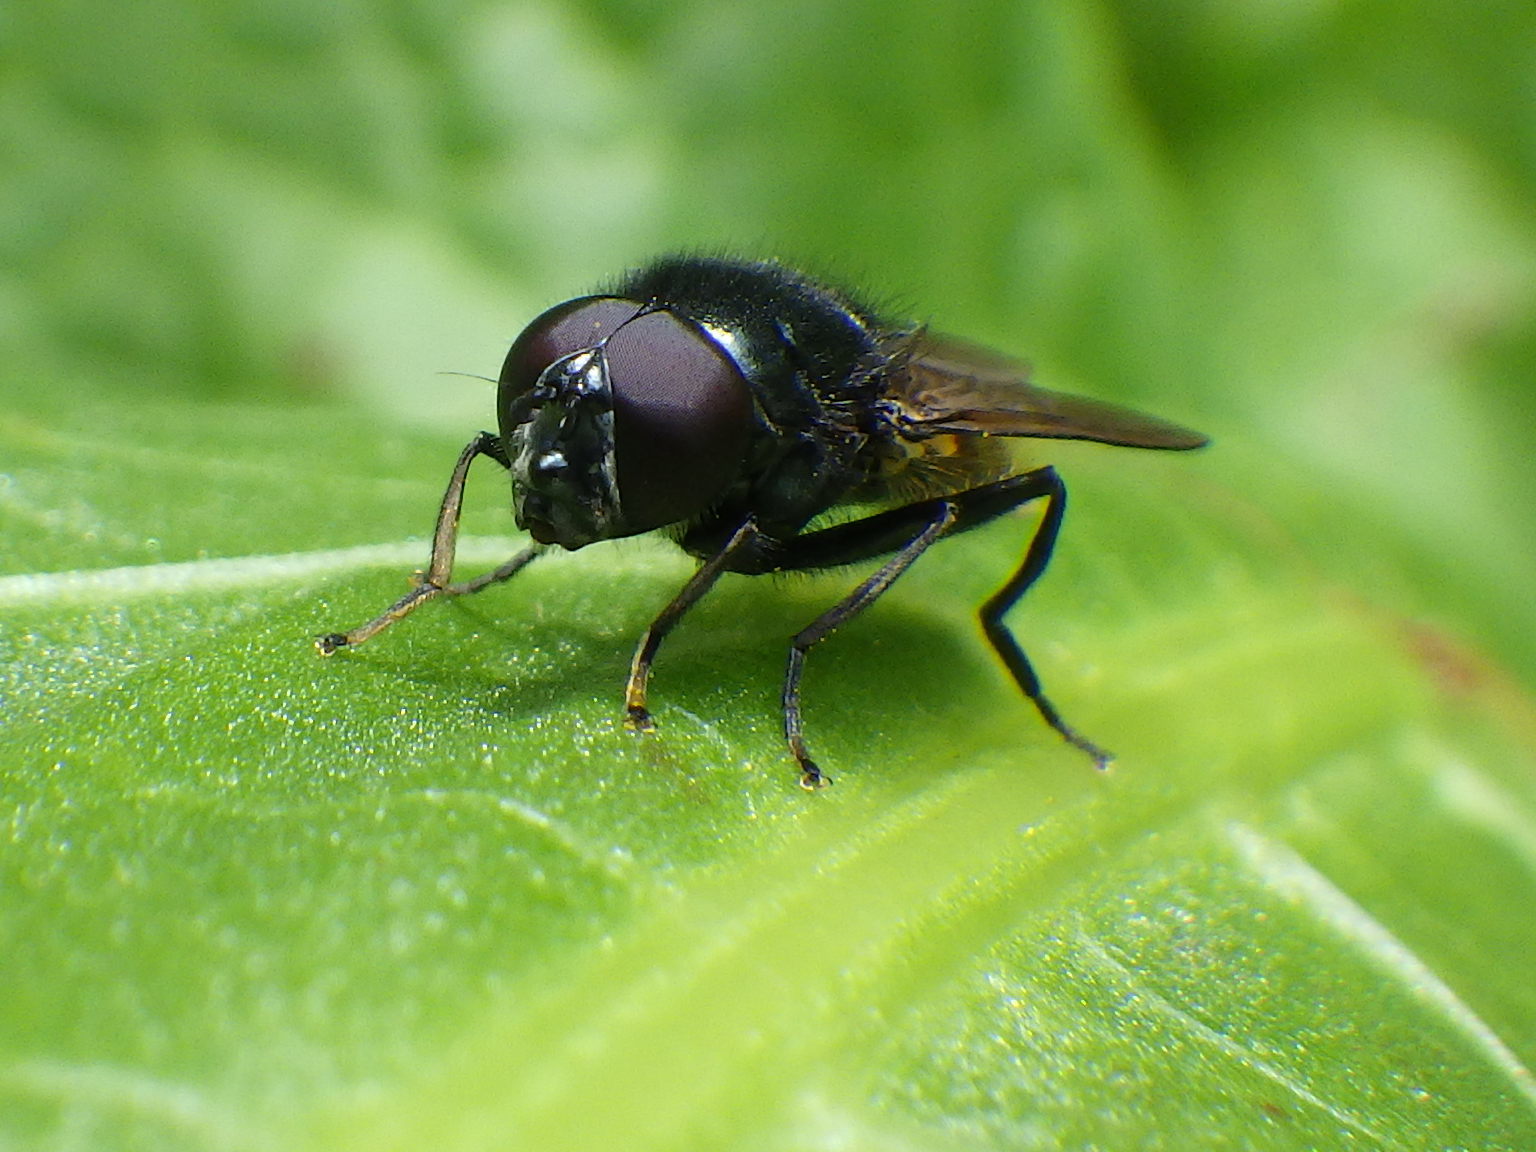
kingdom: Animalia
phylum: Arthropoda
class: Insecta
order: Diptera
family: Syrphidae
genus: Cheilosia
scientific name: Cheilosia albitarsis
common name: Buttercup blacklet
